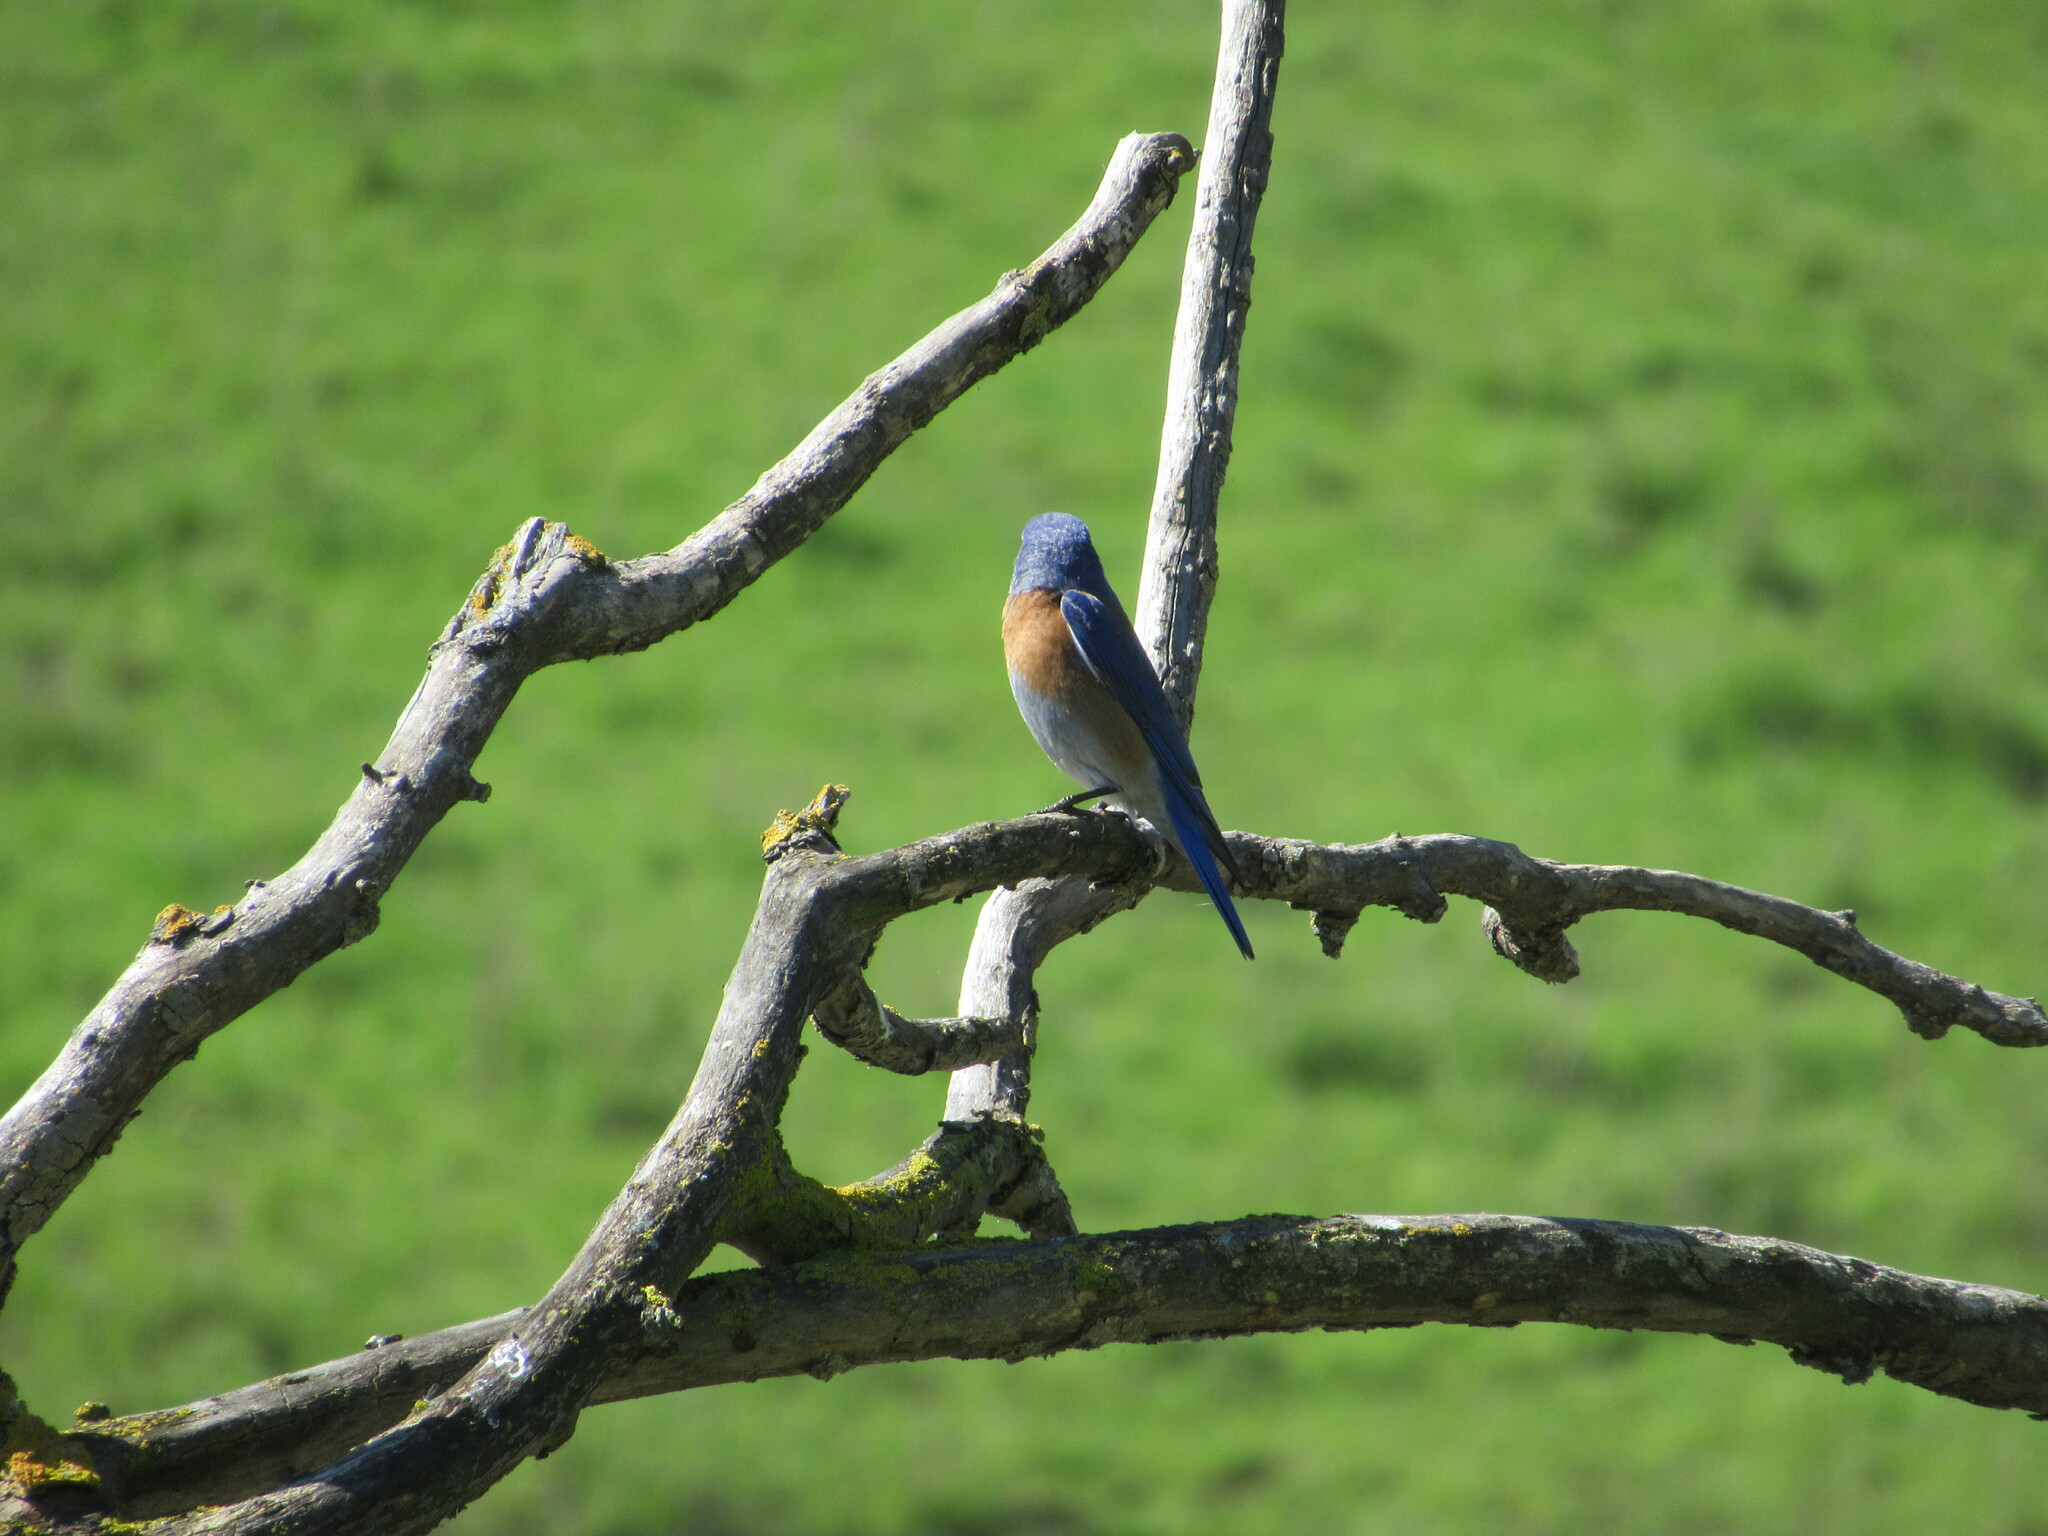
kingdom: Animalia
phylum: Chordata
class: Aves
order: Passeriformes
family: Turdidae
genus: Sialia
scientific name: Sialia mexicana
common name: Western bluebird
